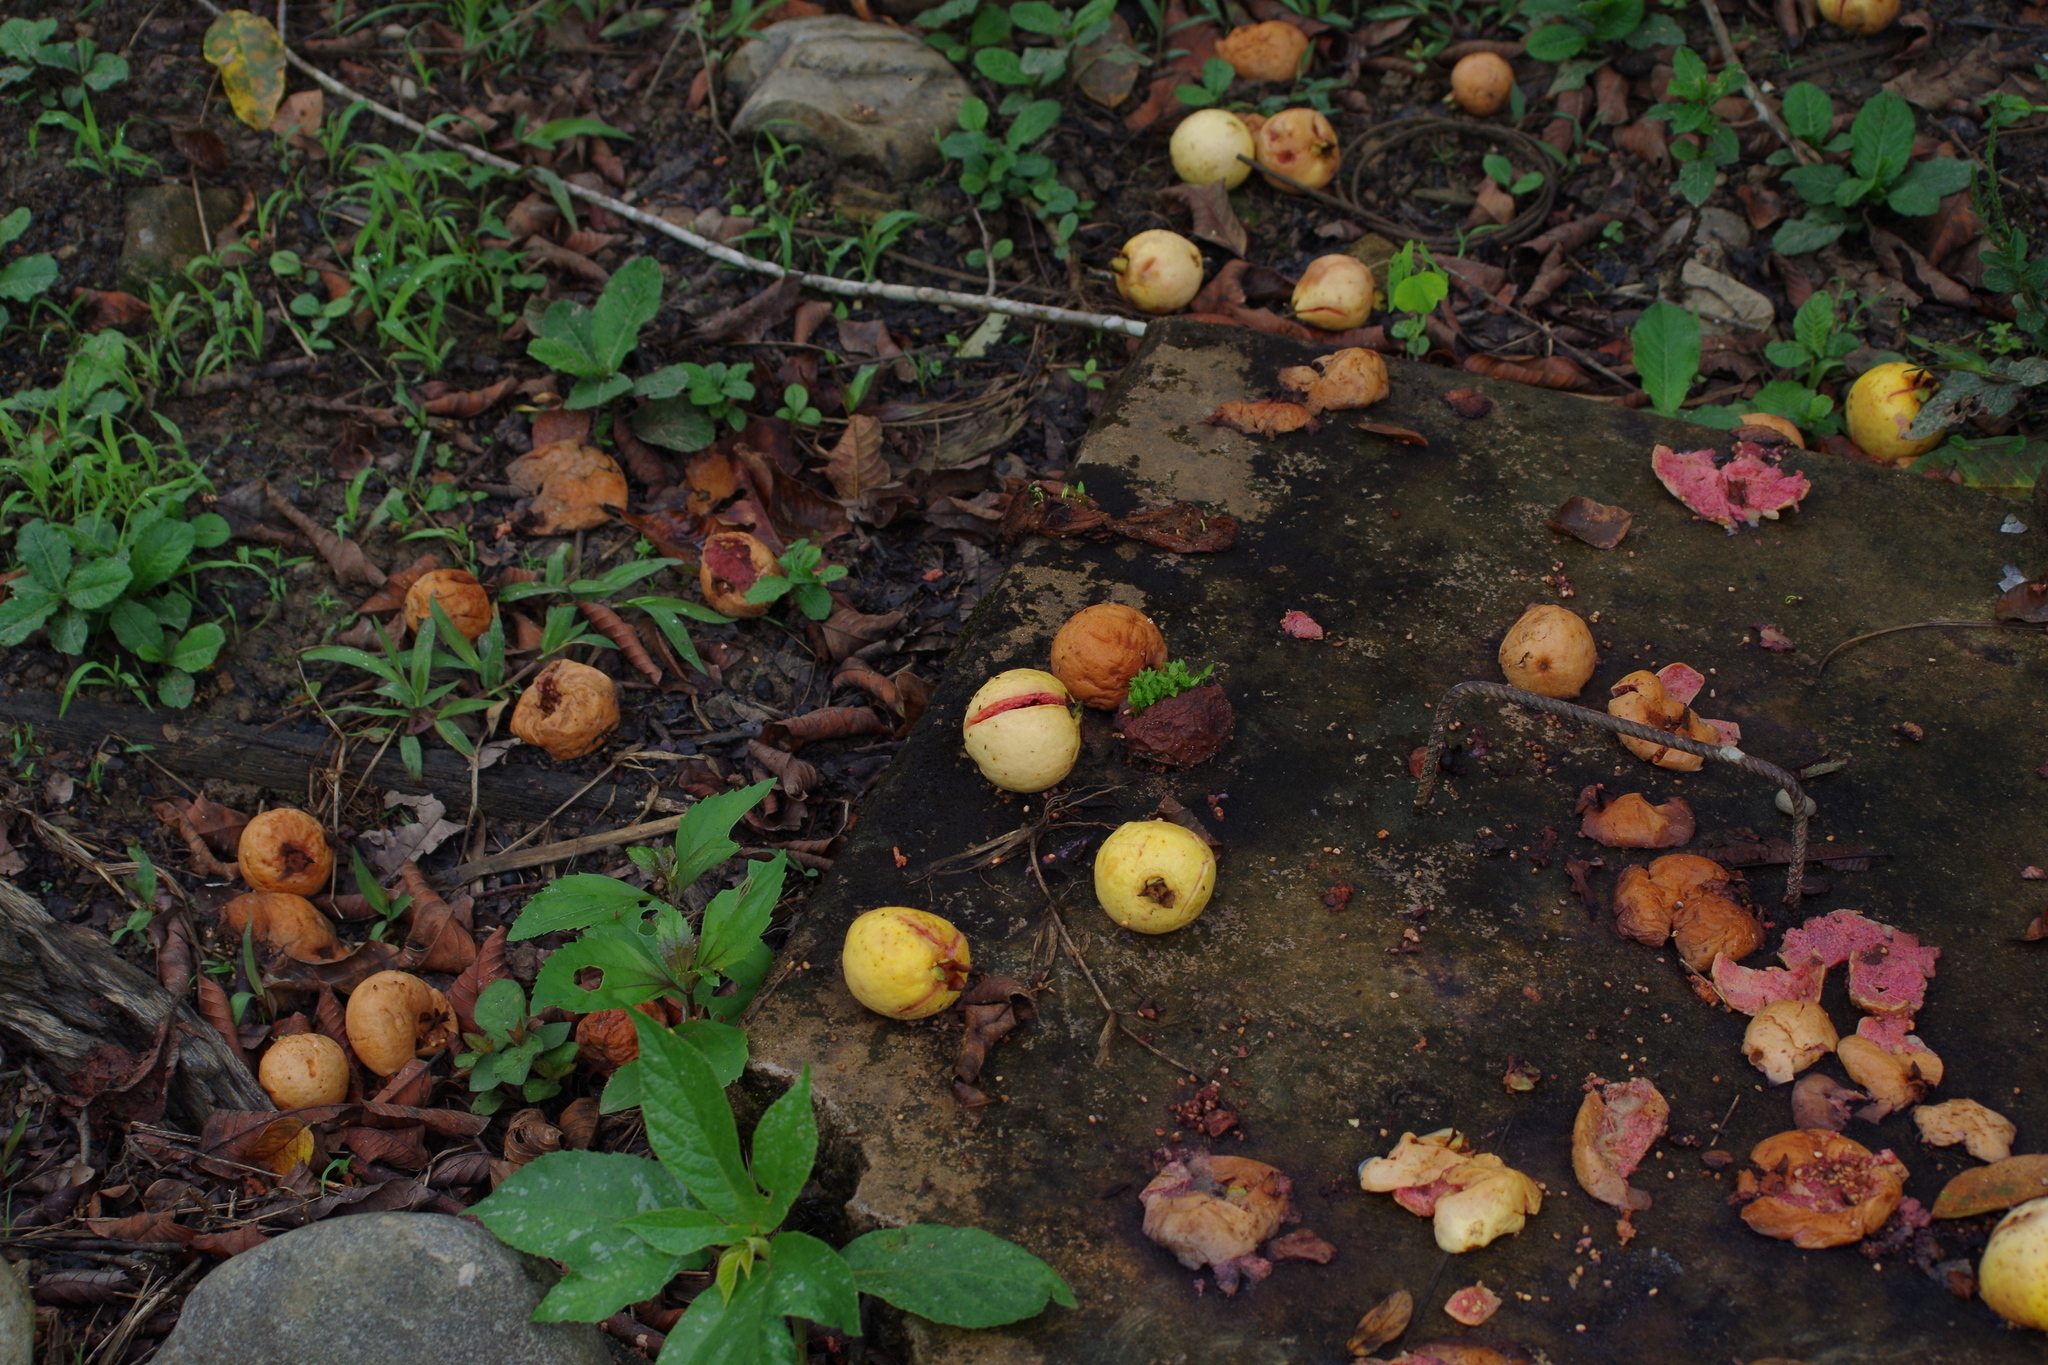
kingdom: Plantae
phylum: Tracheophyta
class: Magnoliopsida
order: Myrtales
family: Myrtaceae
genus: Psidium
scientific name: Psidium guajava
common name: Guava
